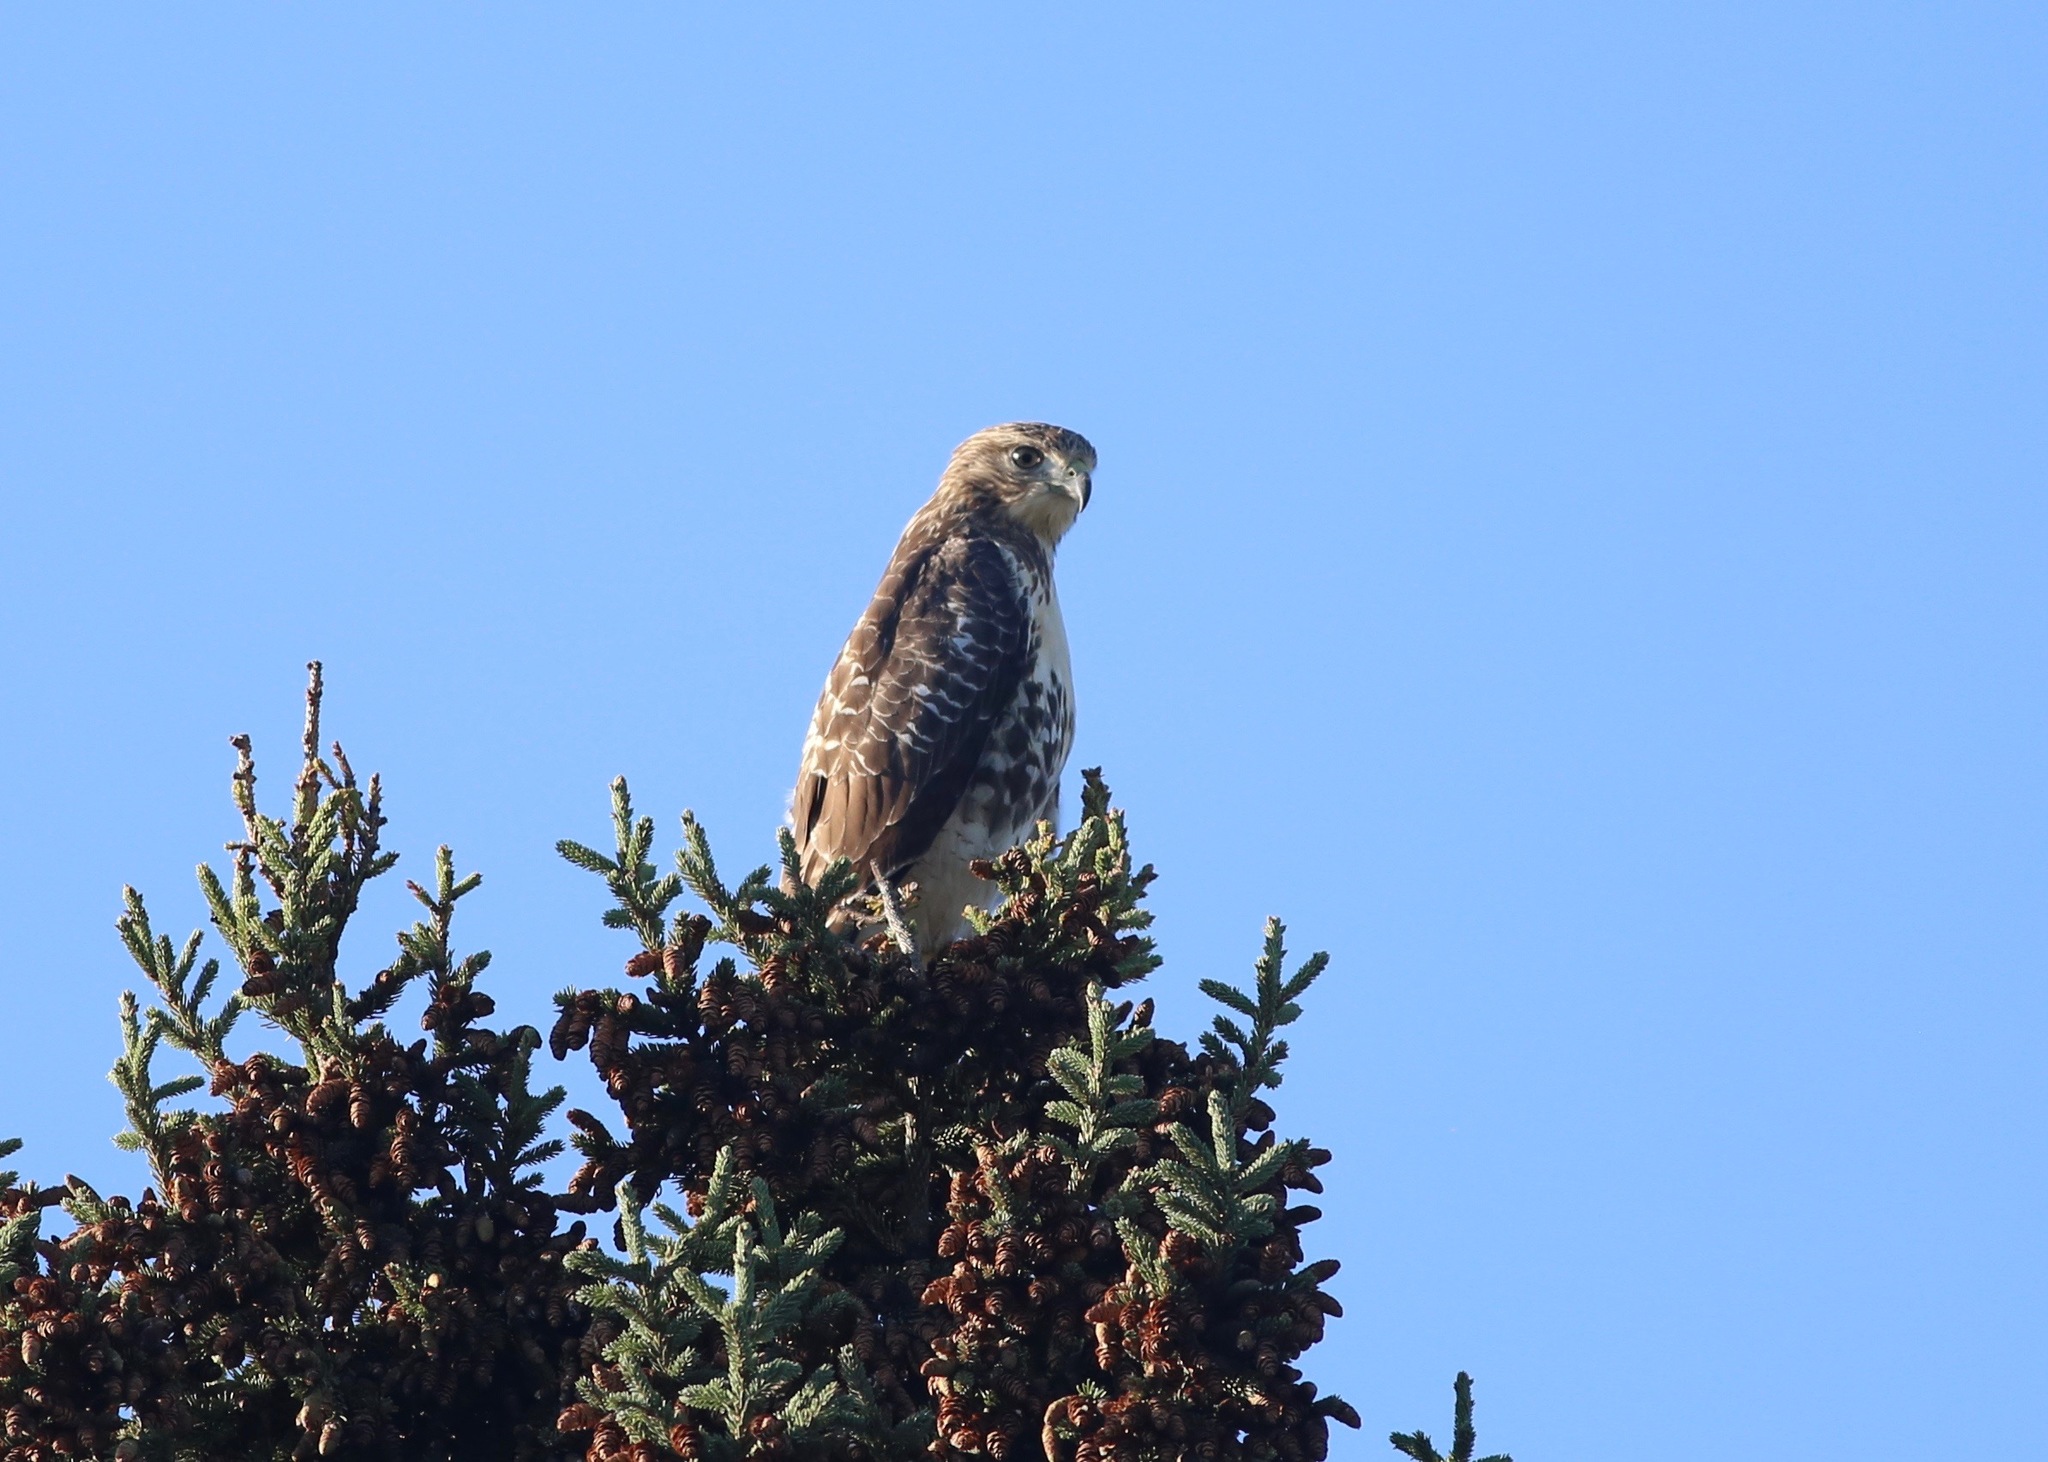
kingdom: Animalia
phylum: Chordata
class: Aves
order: Accipitriformes
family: Accipitridae
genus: Buteo
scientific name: Buteo jamaicensis
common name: Red-tailed hawk
